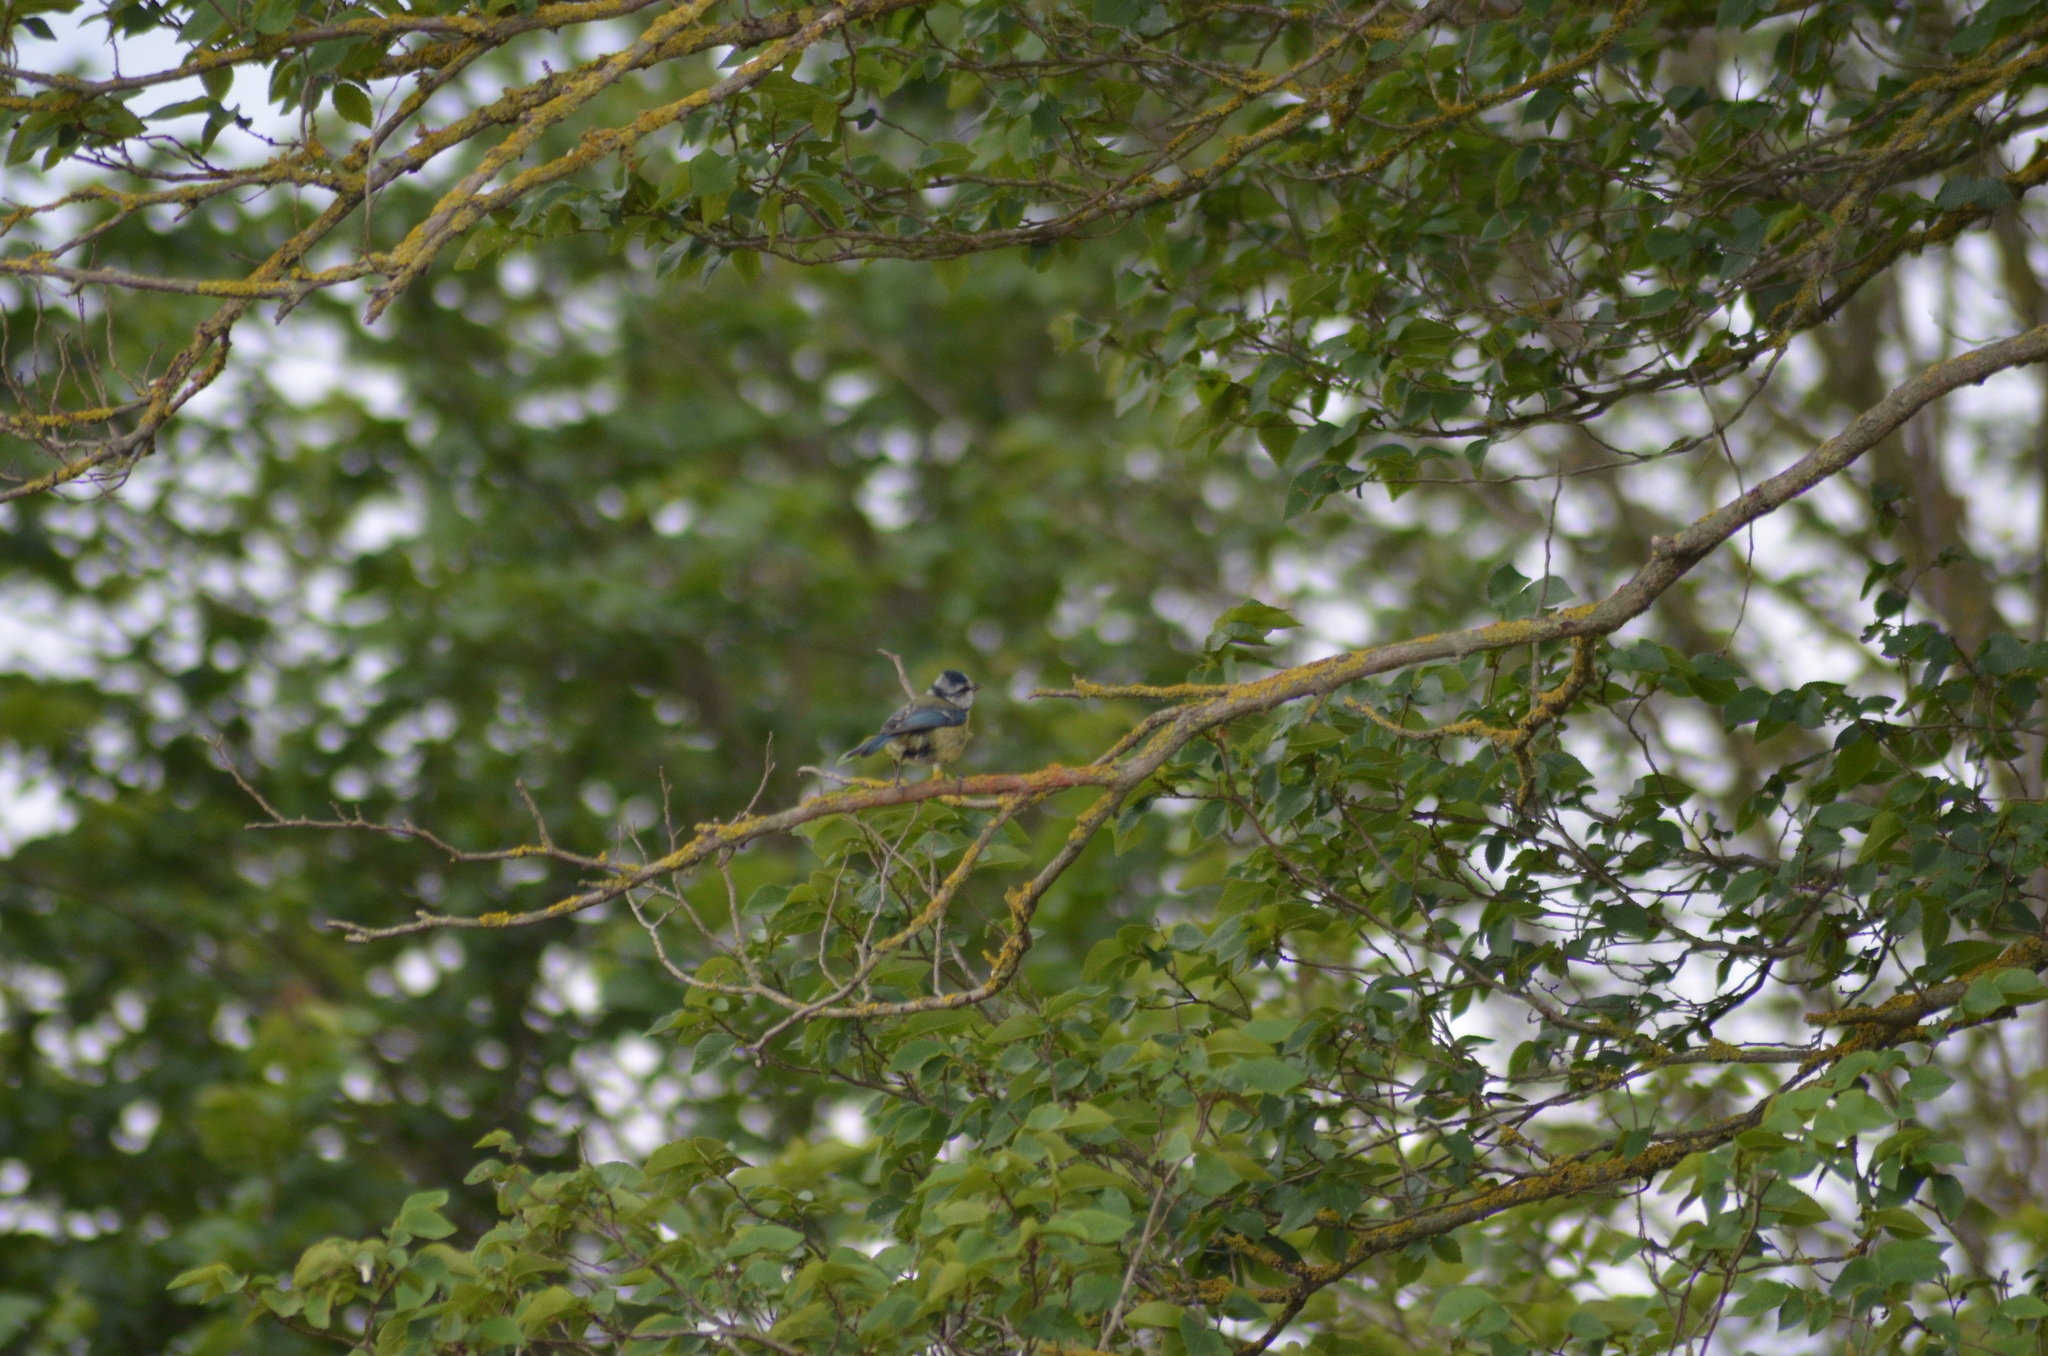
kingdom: Animalia
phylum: Chordata
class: Aves
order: Passeriformes
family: Paridae
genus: Cyanistes
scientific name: Cyanistes caeruleus
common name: Eurasian blue tit
